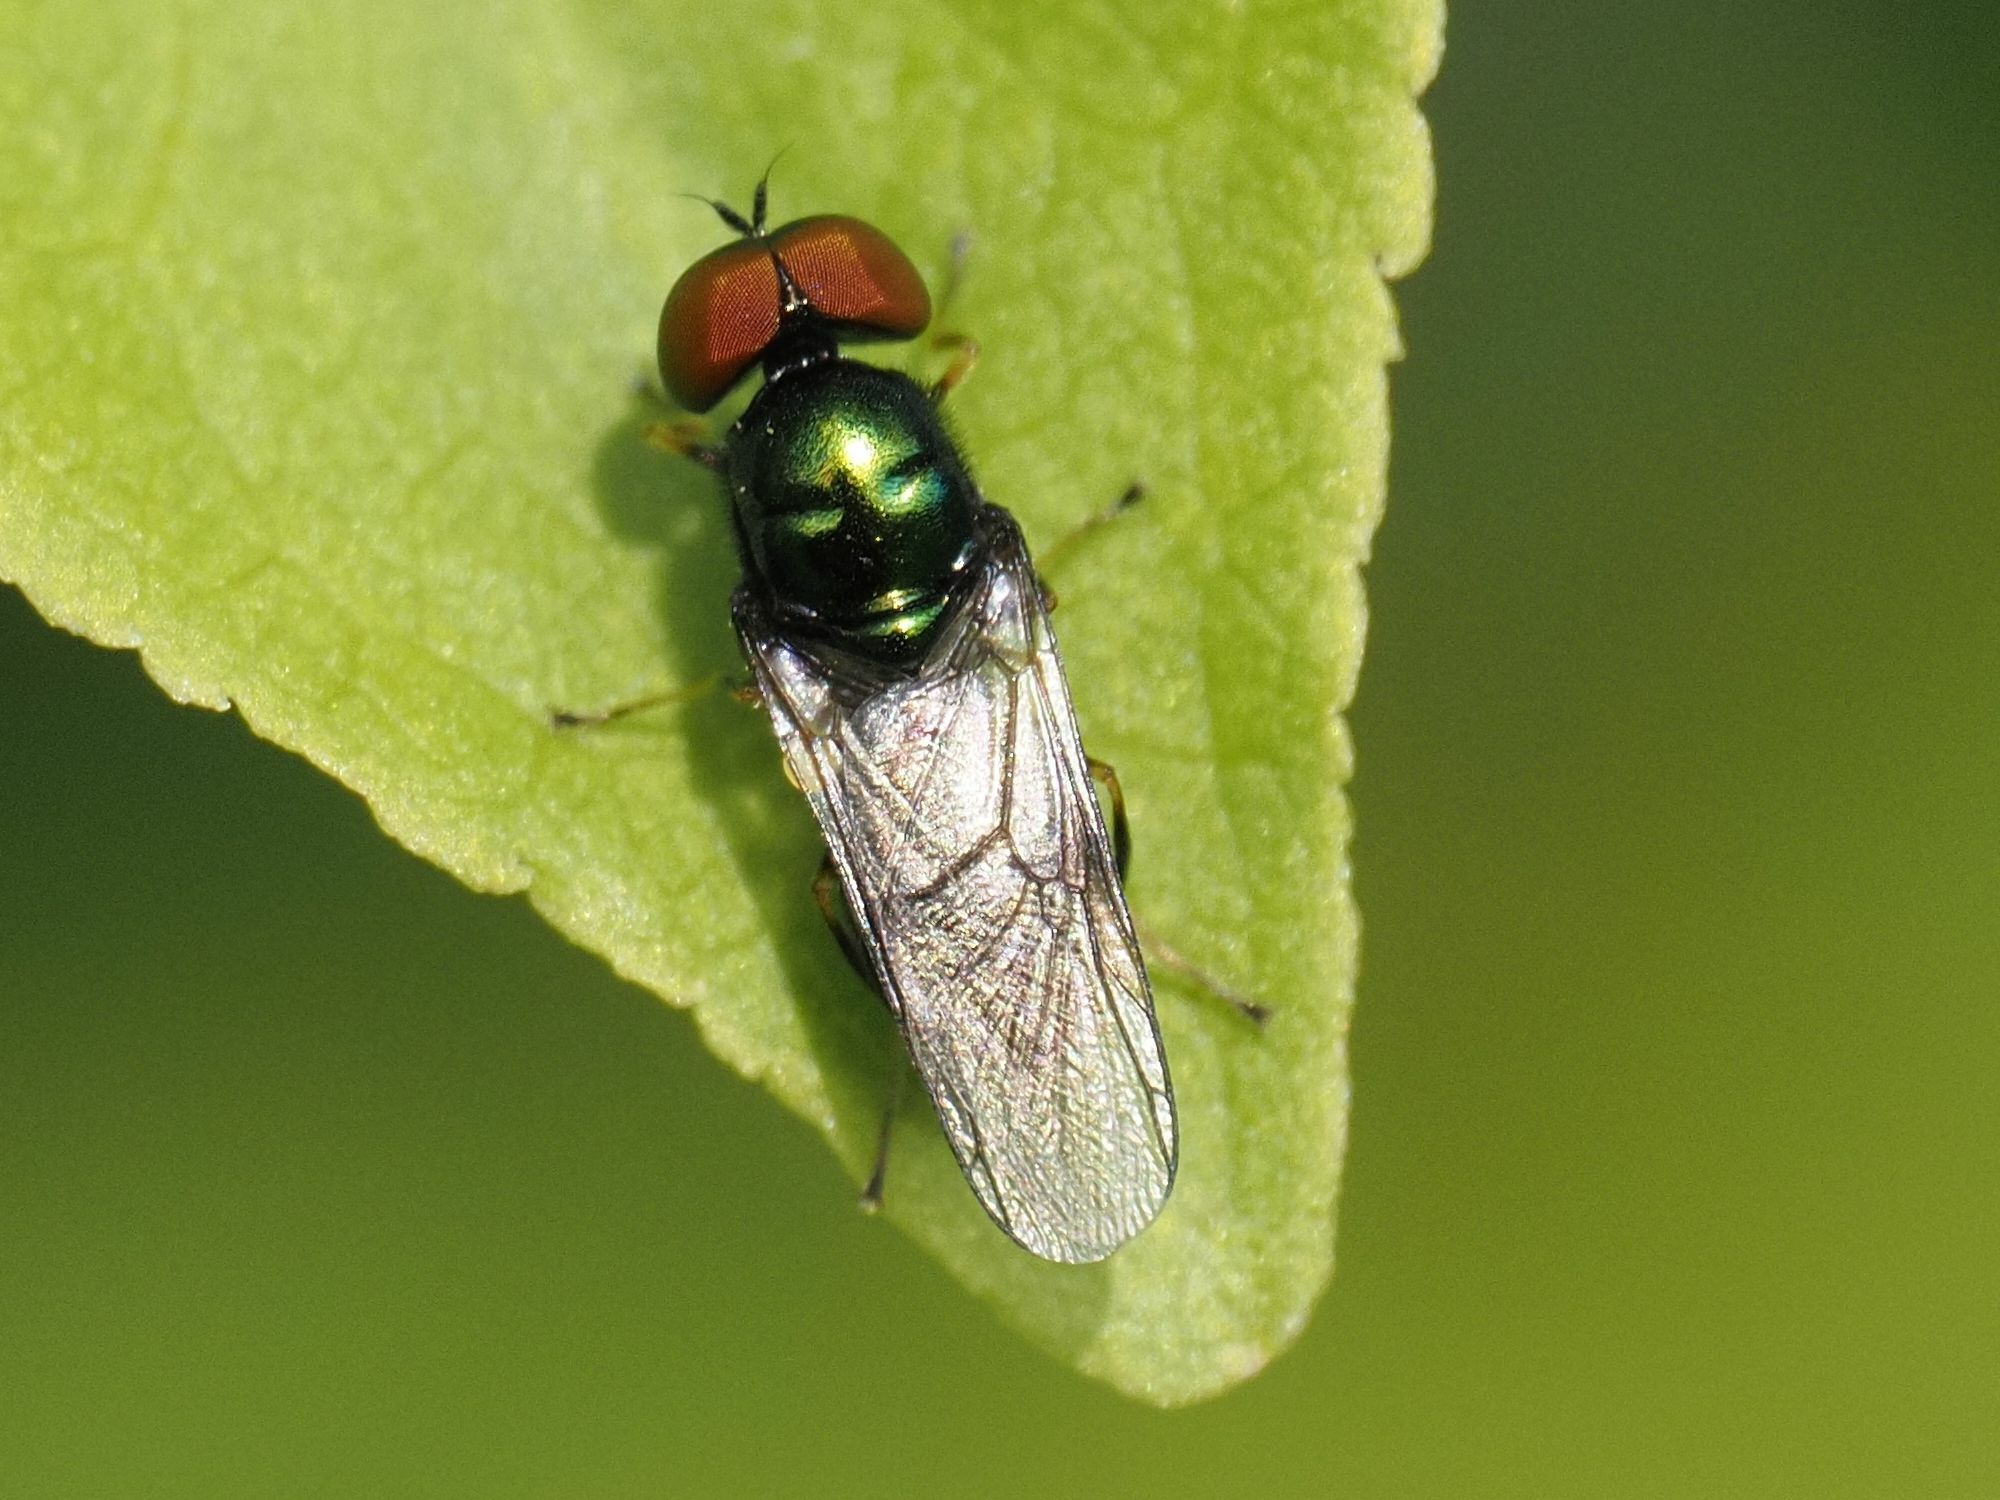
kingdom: Animalia
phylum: Arthropoda
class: Insecta
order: Diptera
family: Stratiomyidae
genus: Microchrysa
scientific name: Microchrysa polita
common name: Black-horned gem
